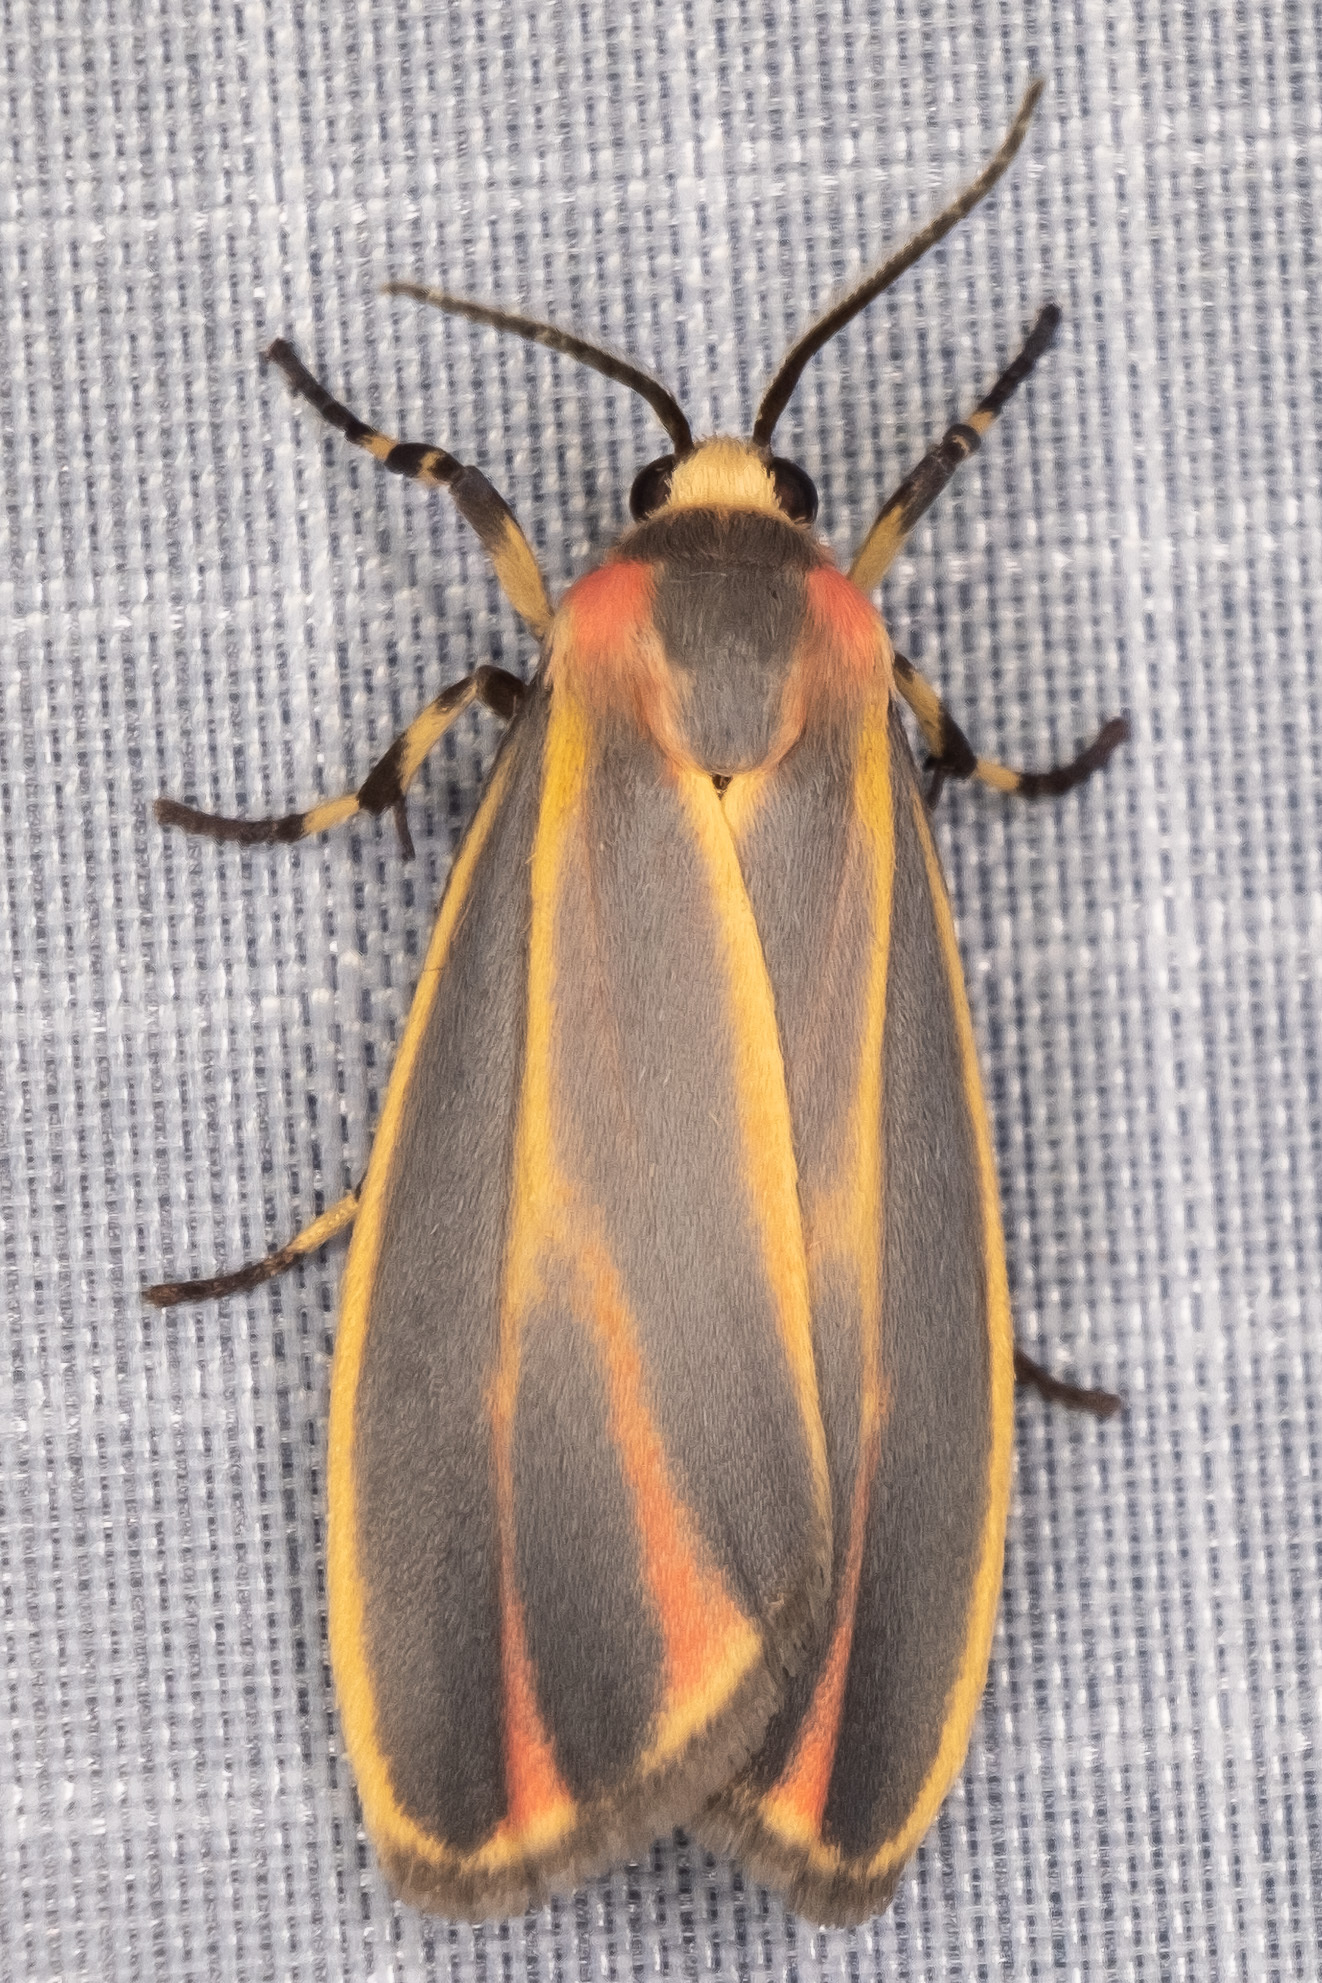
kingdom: Animalia
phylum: Arthropoda
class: Insecta
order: Lepidoptera
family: Erebidae
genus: Hypoprepia
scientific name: Hypoprepia fucosa
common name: Painted lichen moth
